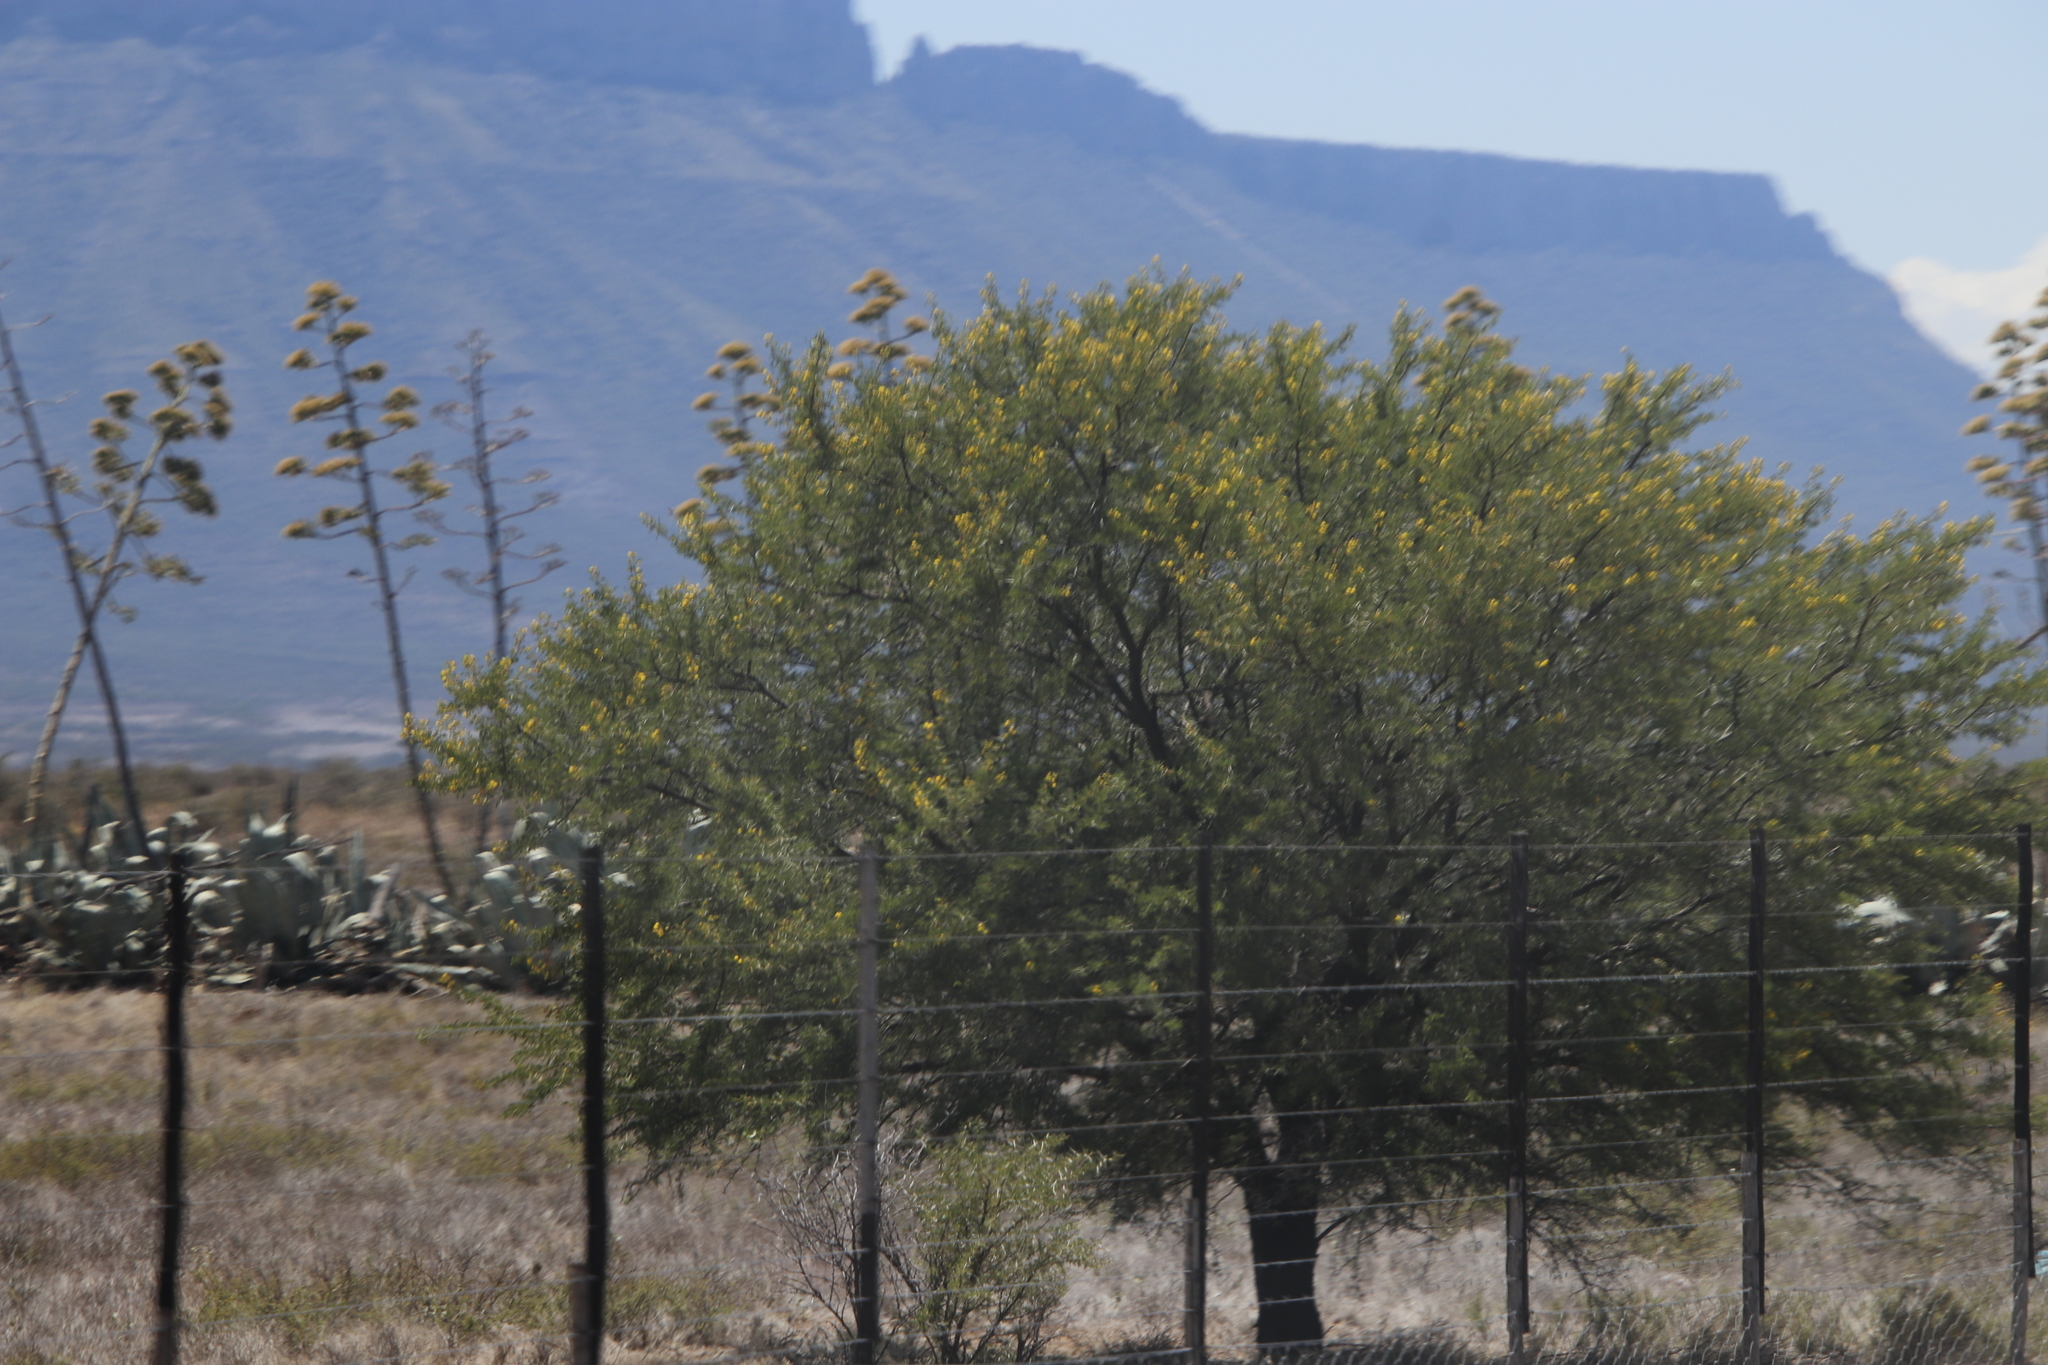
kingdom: Plantae
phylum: Tracheophyta
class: Magnoliopsida
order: Fabales
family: Fabaceae
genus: Vachellia
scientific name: Vachellia karroo
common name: Sweet thorn
